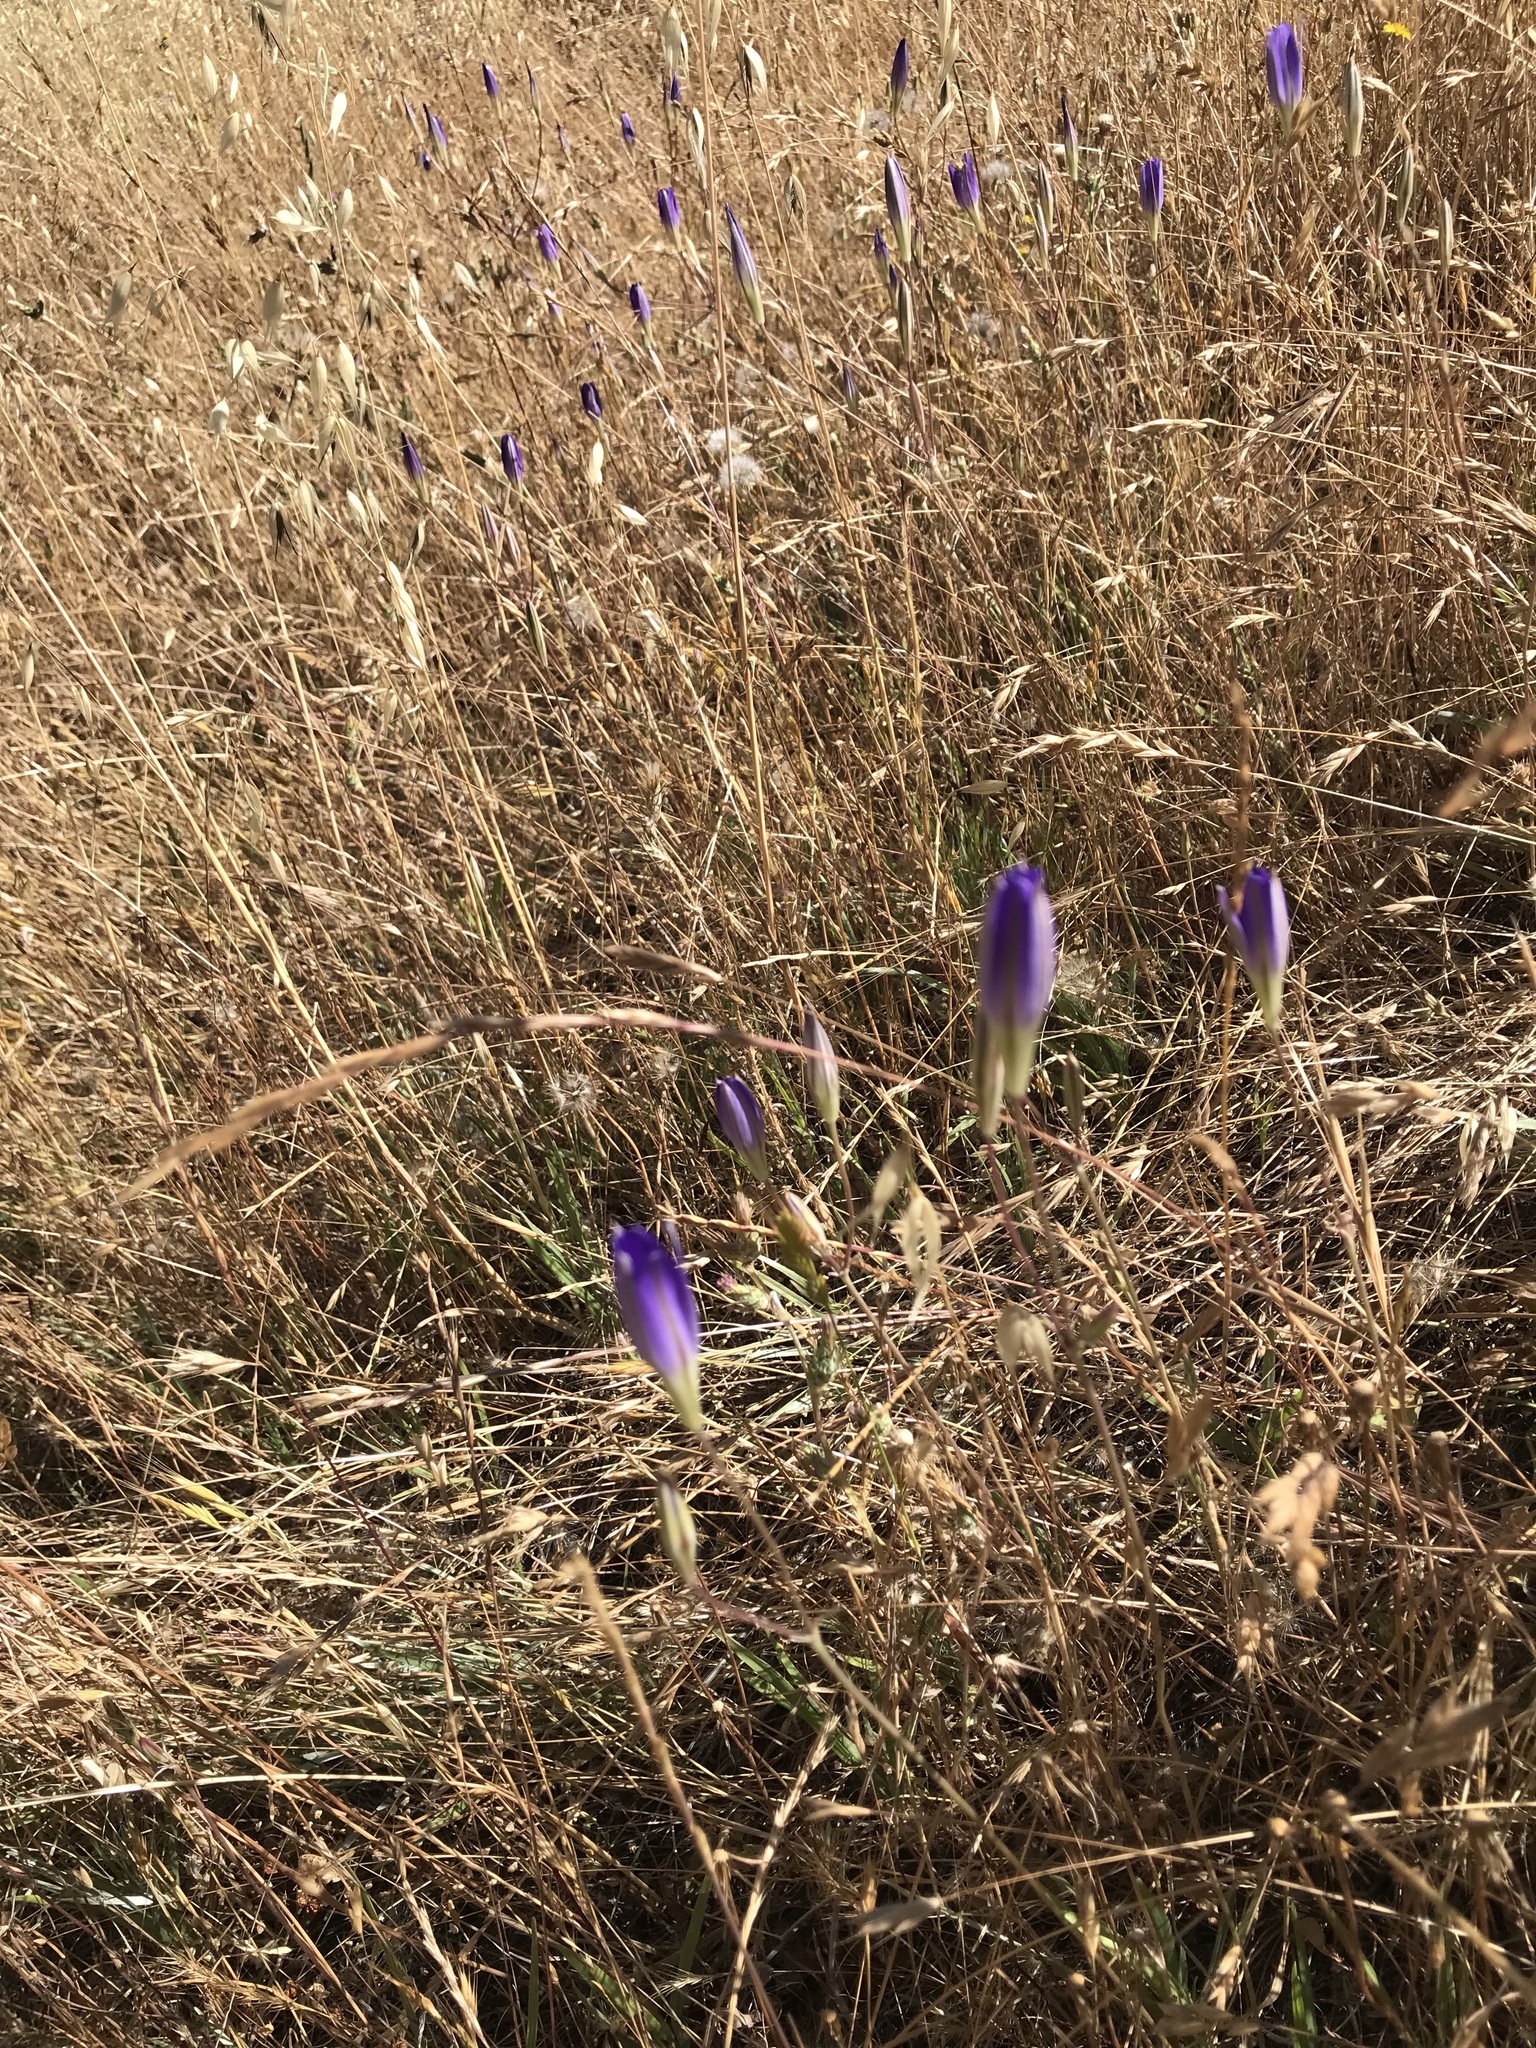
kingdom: Plantae
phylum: Tracheophyta
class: Liliopsida
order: Asparagales
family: Asparagaceae
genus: Brodiaea
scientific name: Brodiaea elegans
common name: Elegant cluster-lily
